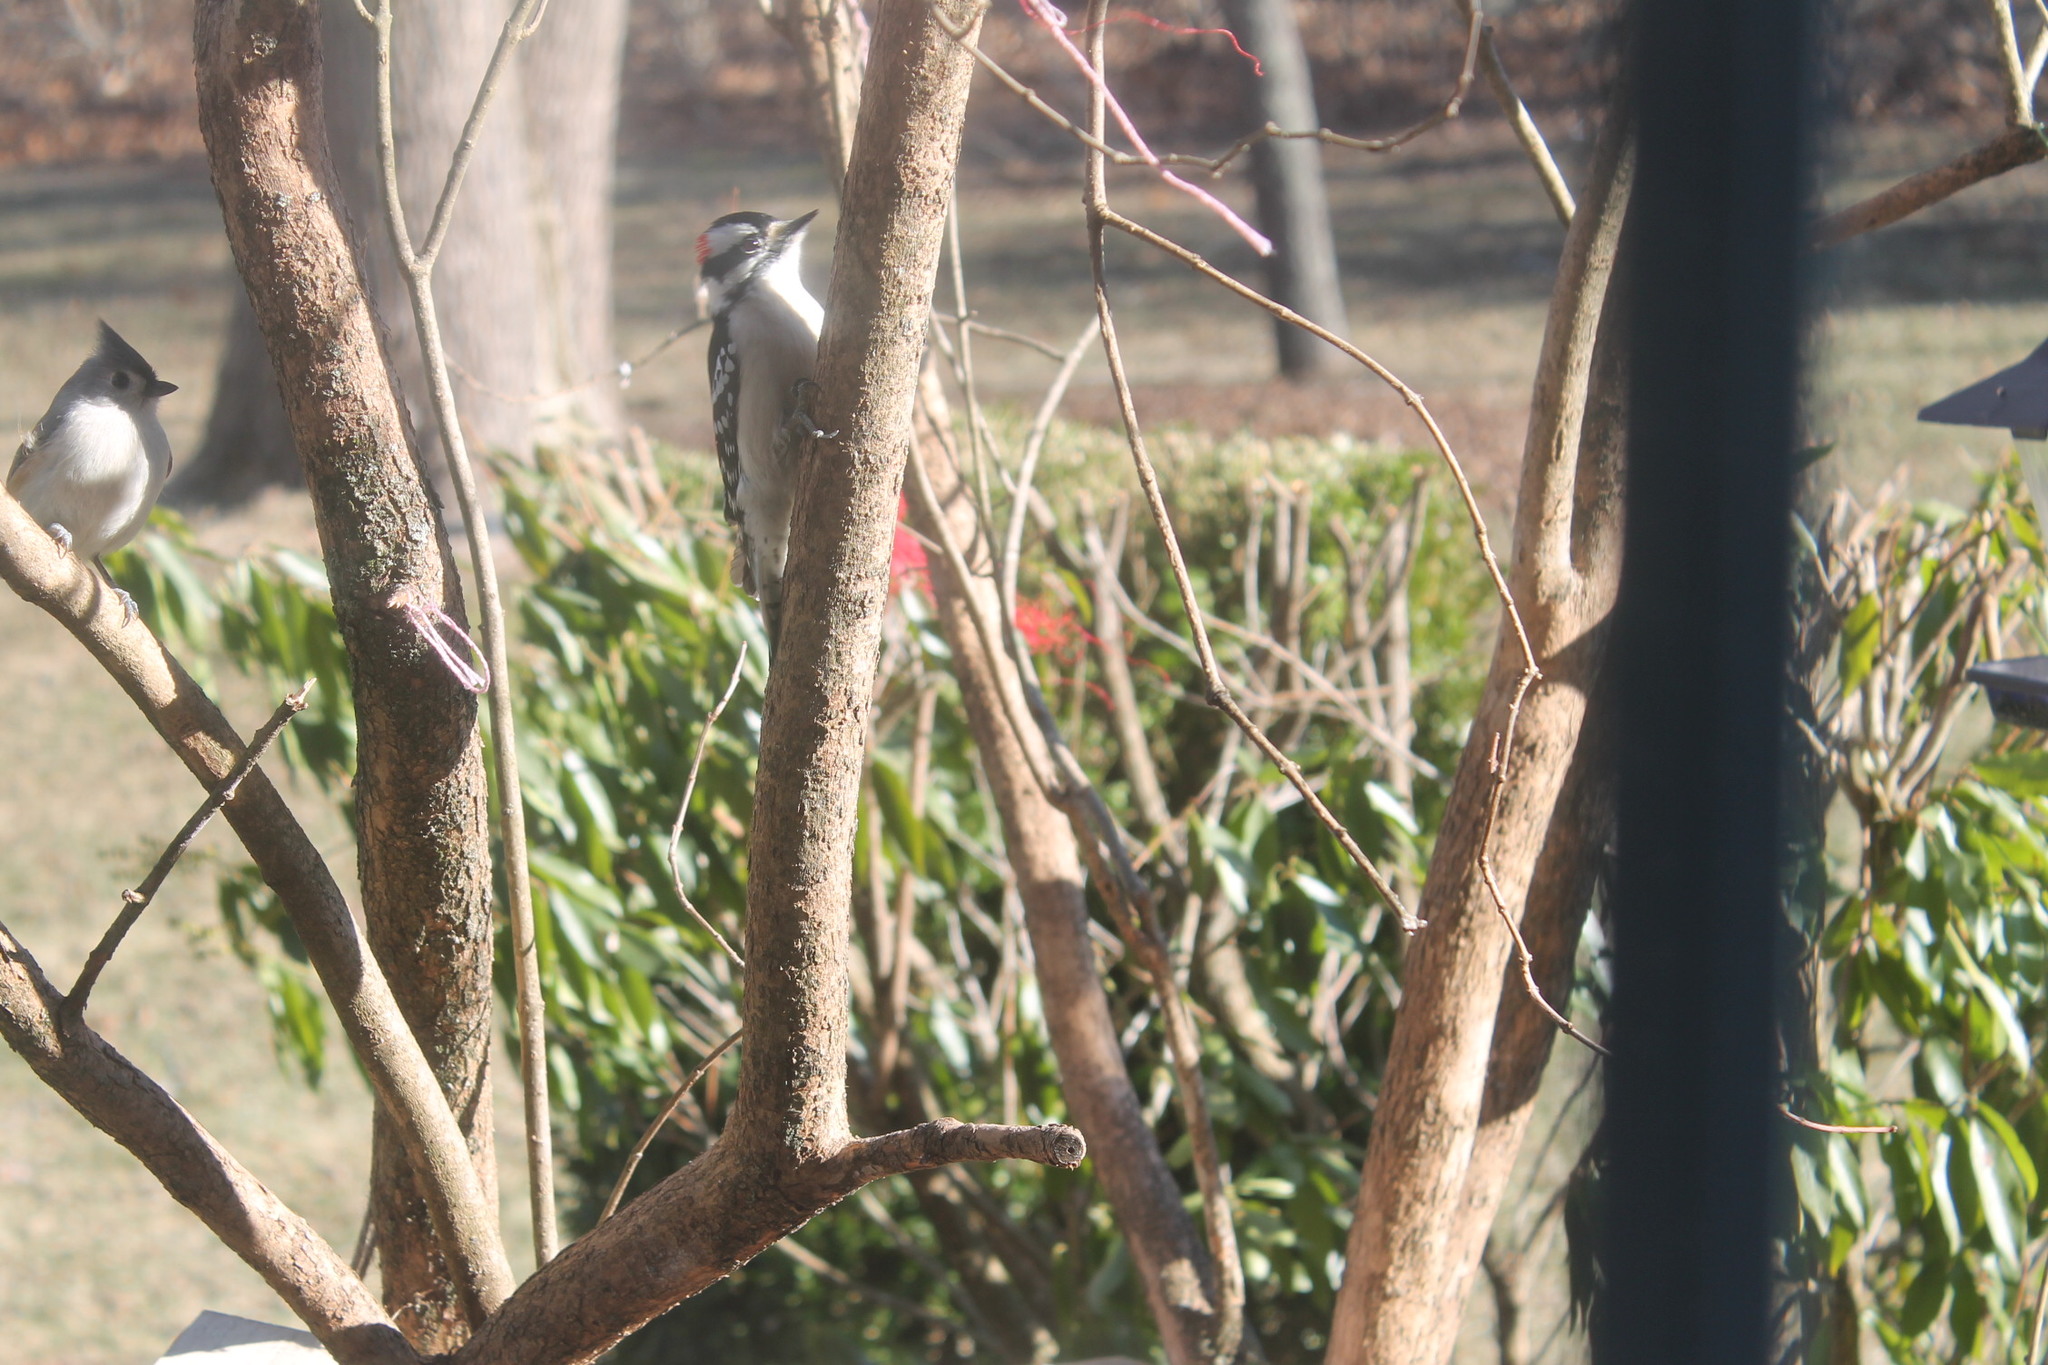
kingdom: Animalia
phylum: Chordata
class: Aves
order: Piciformes
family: Picidae
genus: Dryobates
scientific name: Dryobates pubescens
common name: Downy woodpecker
